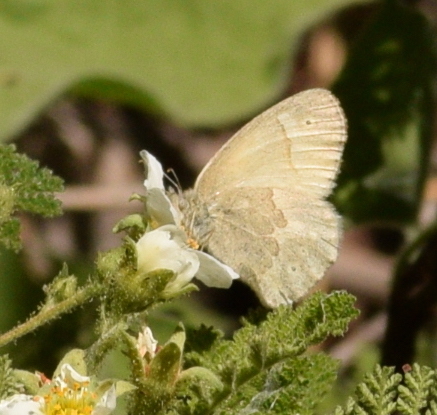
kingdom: Animalia
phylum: Arthropoda
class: Insecta
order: Lepidoptera
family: Nymphalidae
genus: Coenonympha
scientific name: Coenonympha california
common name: Common ringlet
